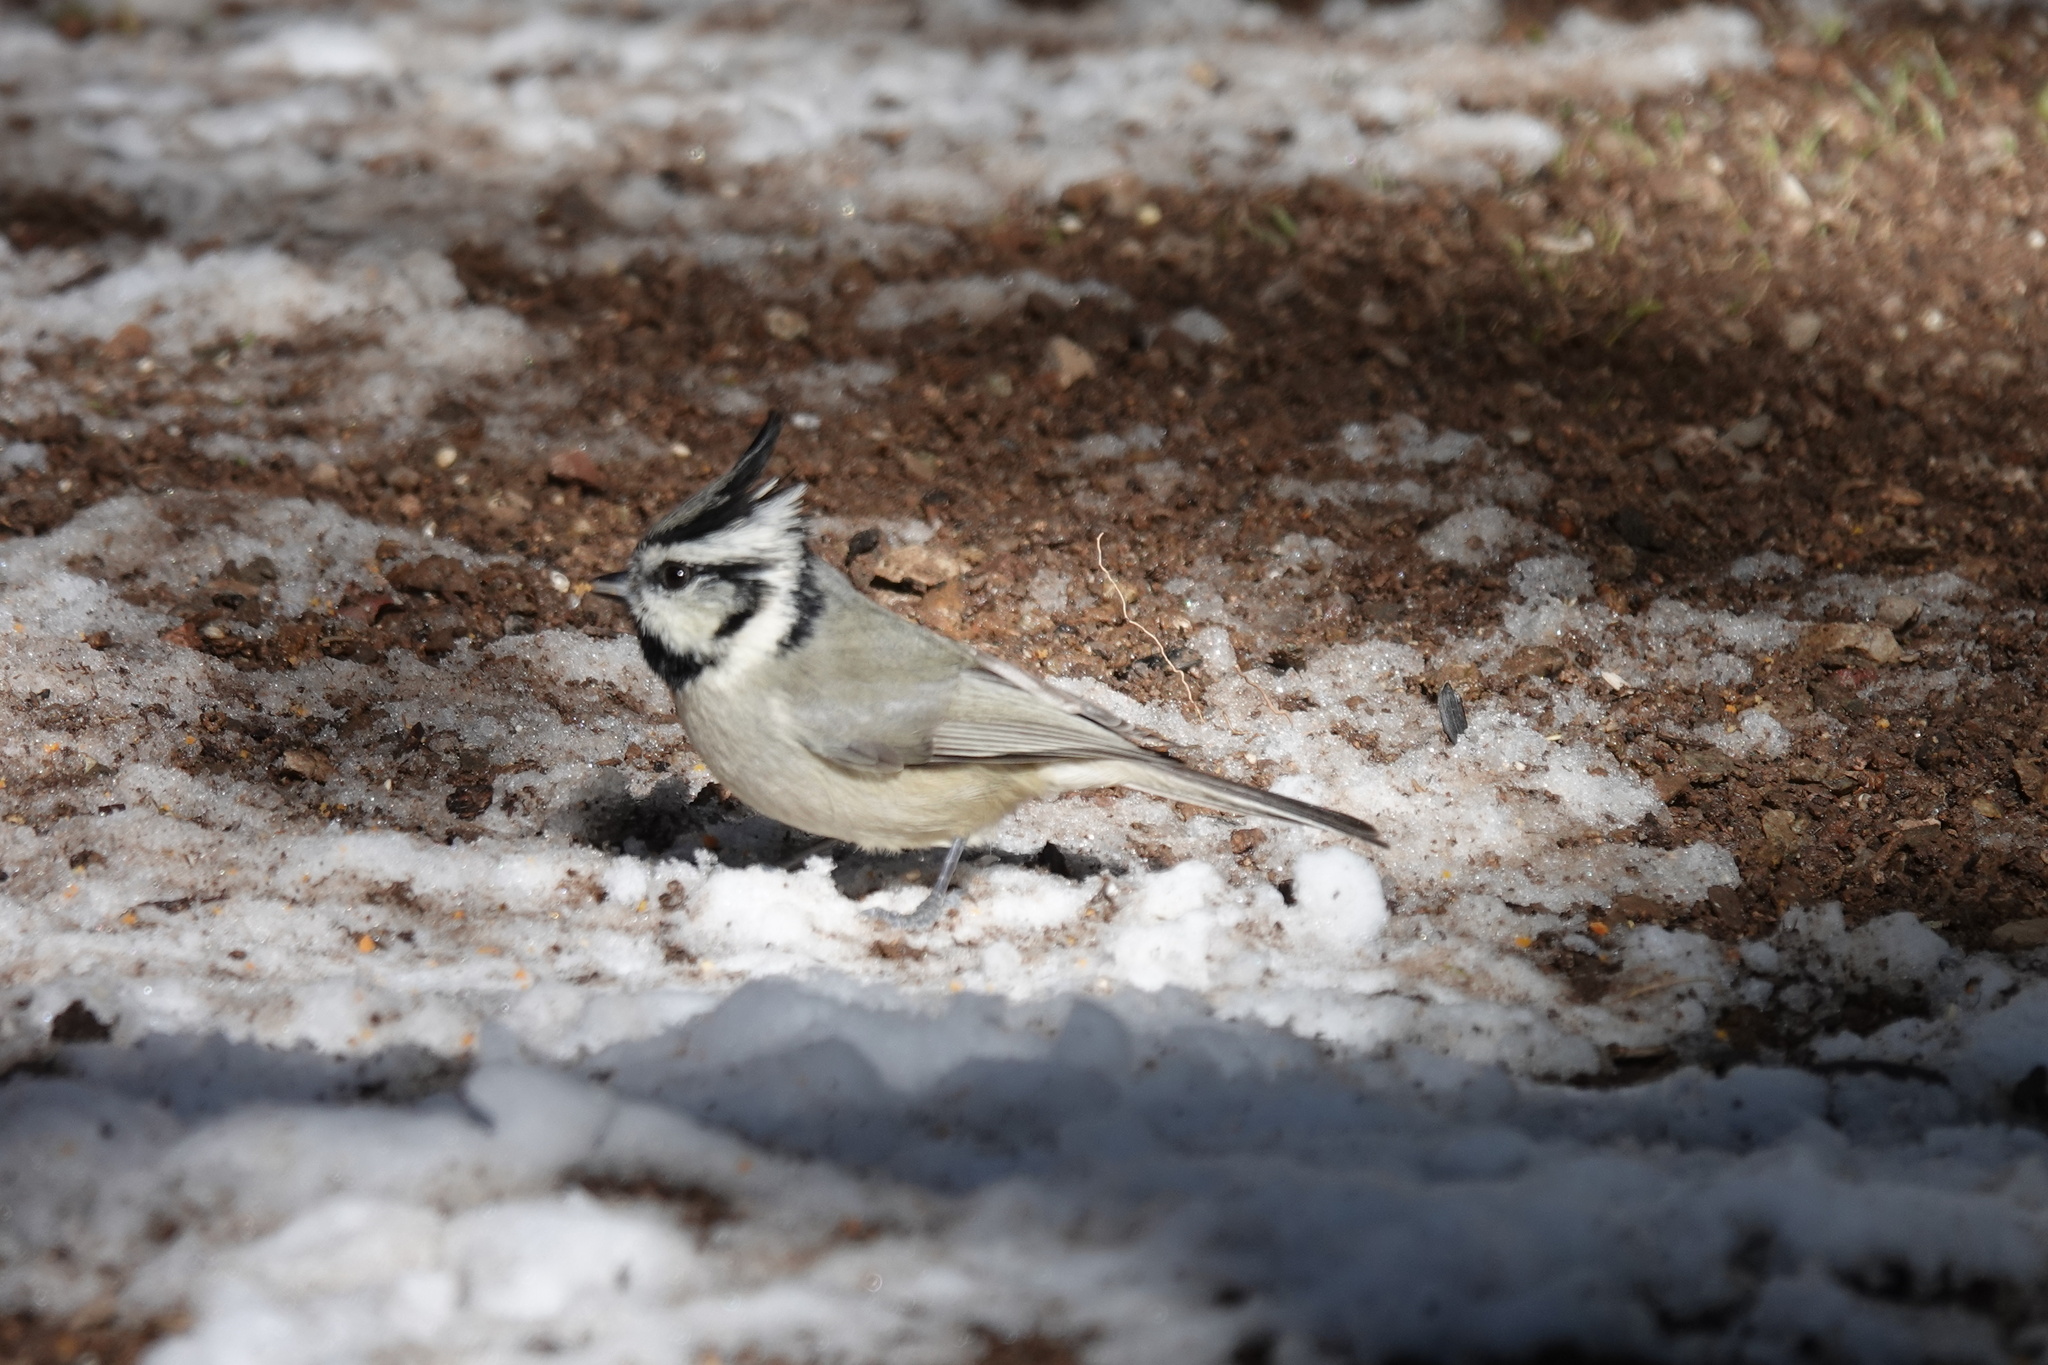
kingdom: Animalia
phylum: Chordata
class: Aves
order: Passeriformes
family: Paridae
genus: Baeolophus
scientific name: Baeolophus wollweberi
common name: Bridled titmouse
